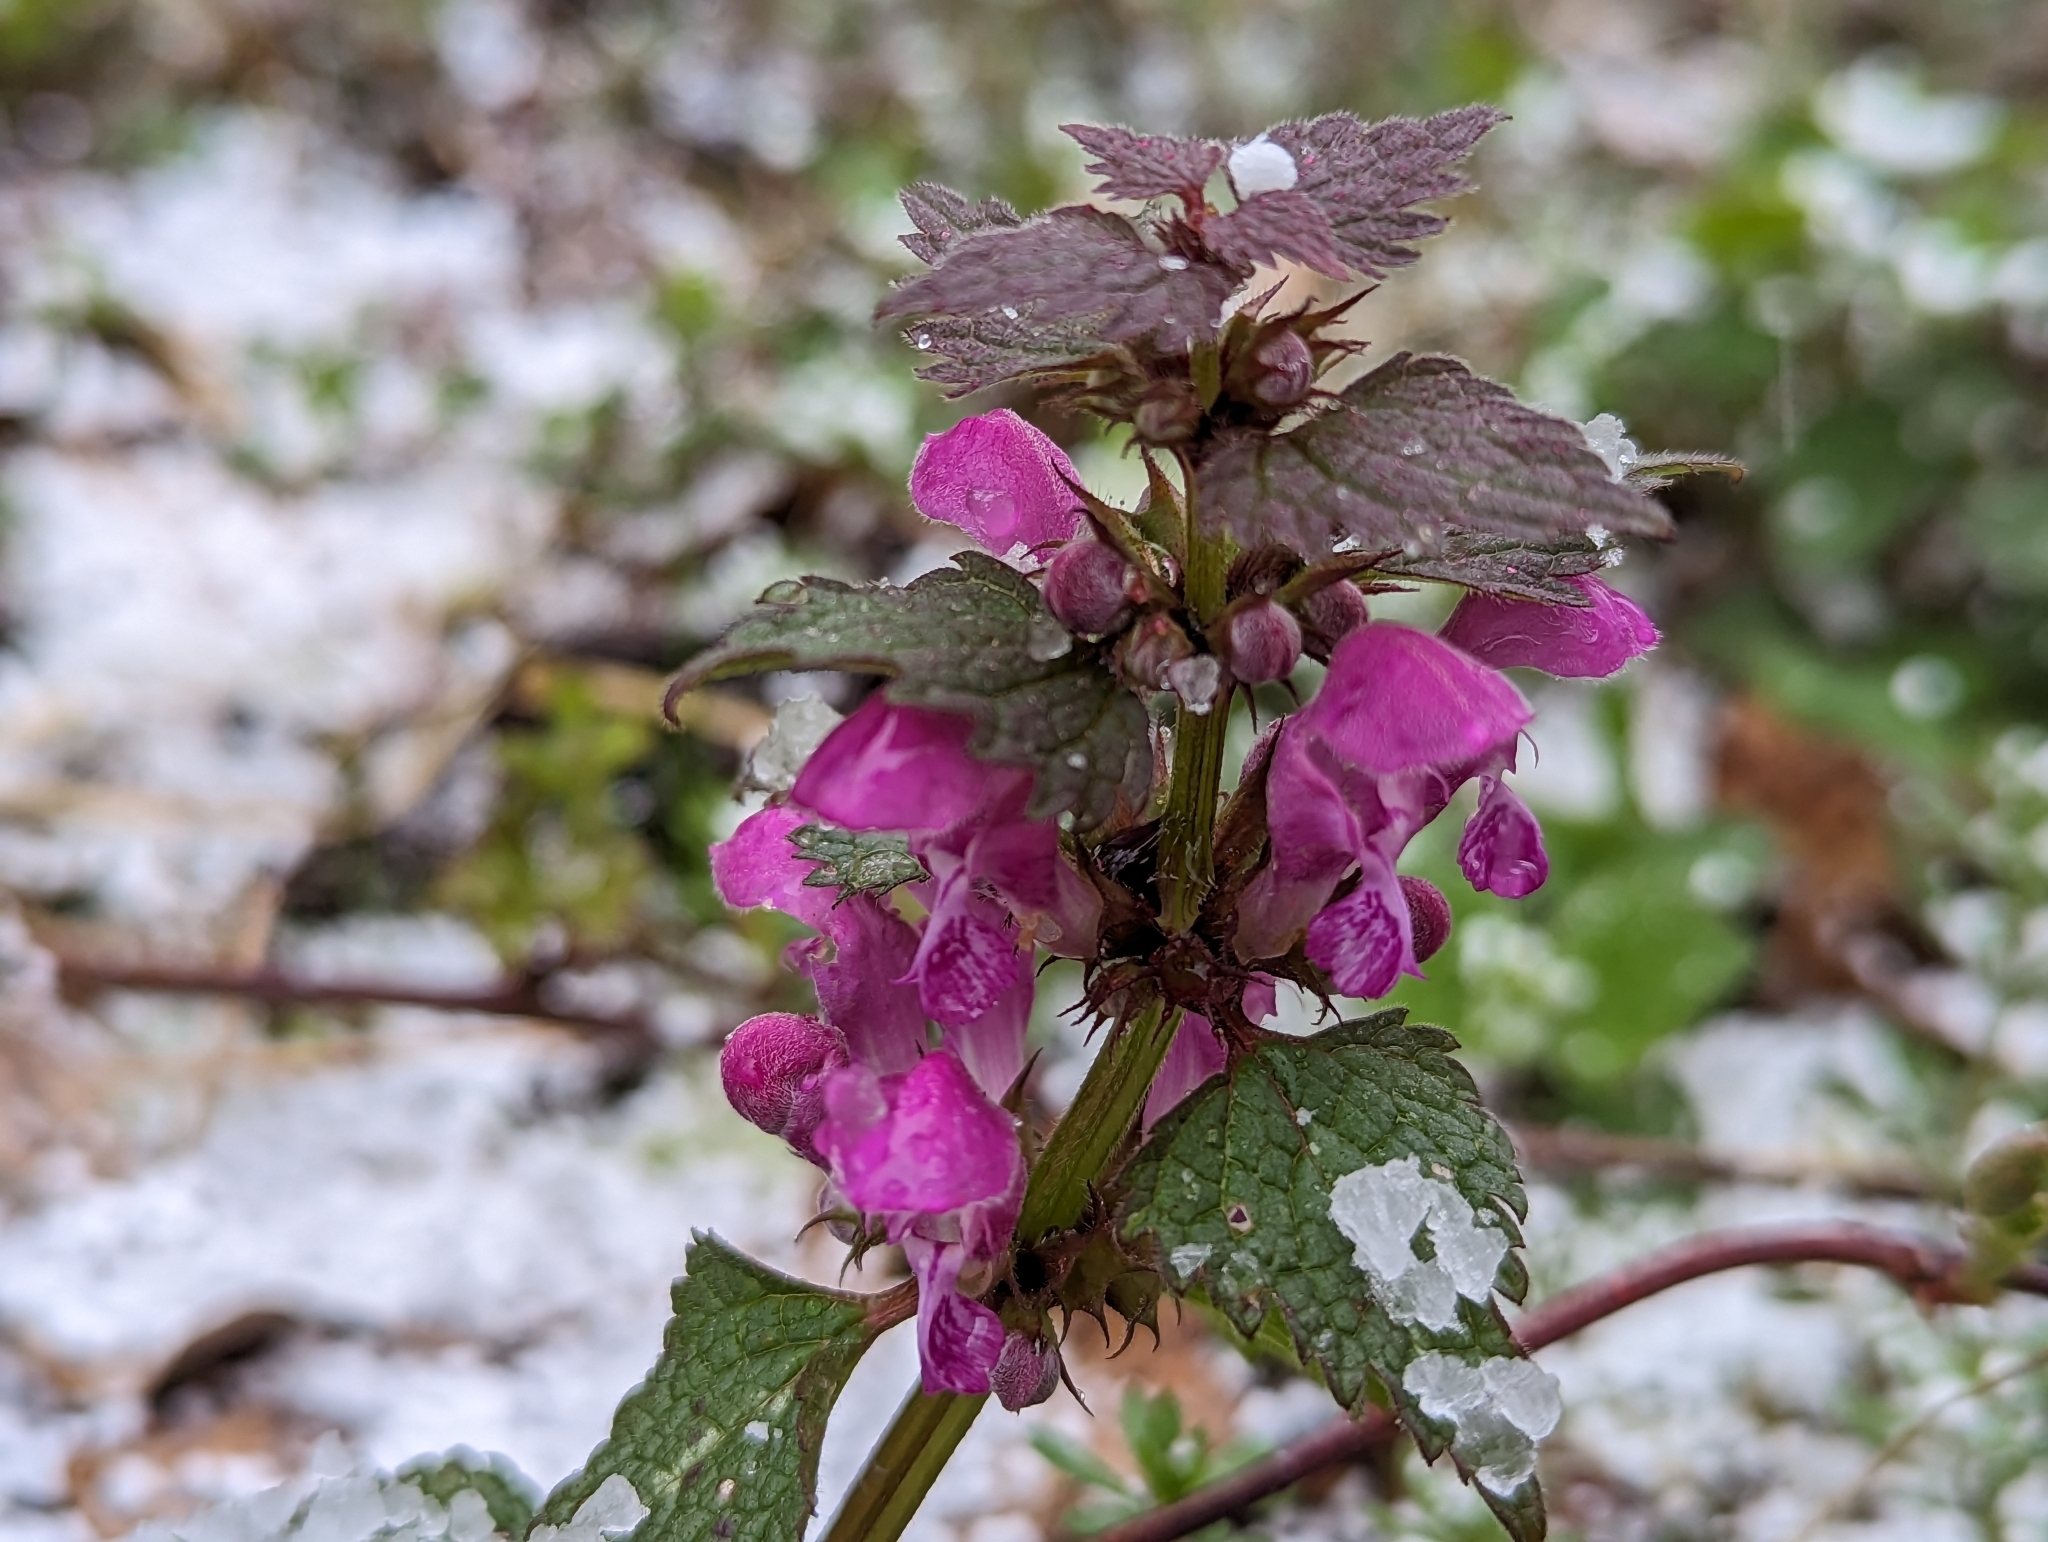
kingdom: Plantae
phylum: Tracheophyta
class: Magnoliopsida
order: Lamiales
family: Lamiaceae
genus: Lamium
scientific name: Lamium maculatum
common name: Spotted dead-nettle
